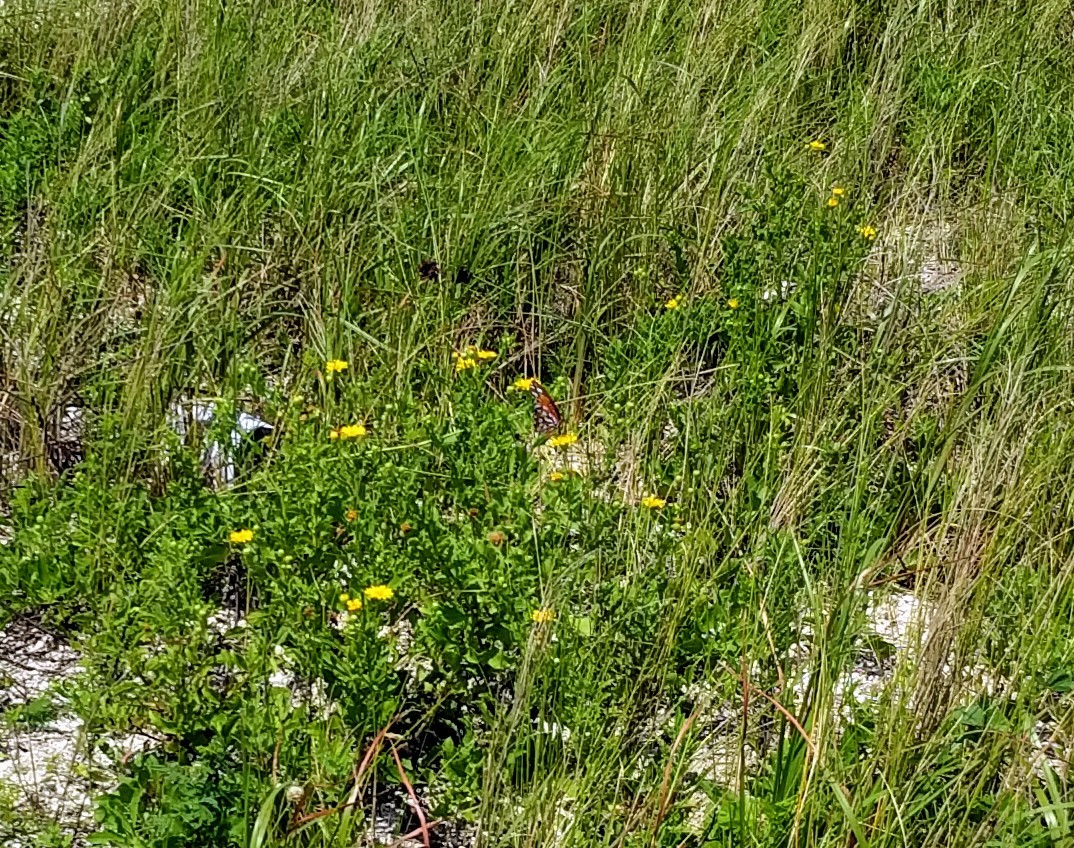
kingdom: Animalia
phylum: Arthropoda
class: Insecta
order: Lepidoptera
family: Nymphalidae
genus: Dione
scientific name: Dione vanillae
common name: Gulf fritillary
